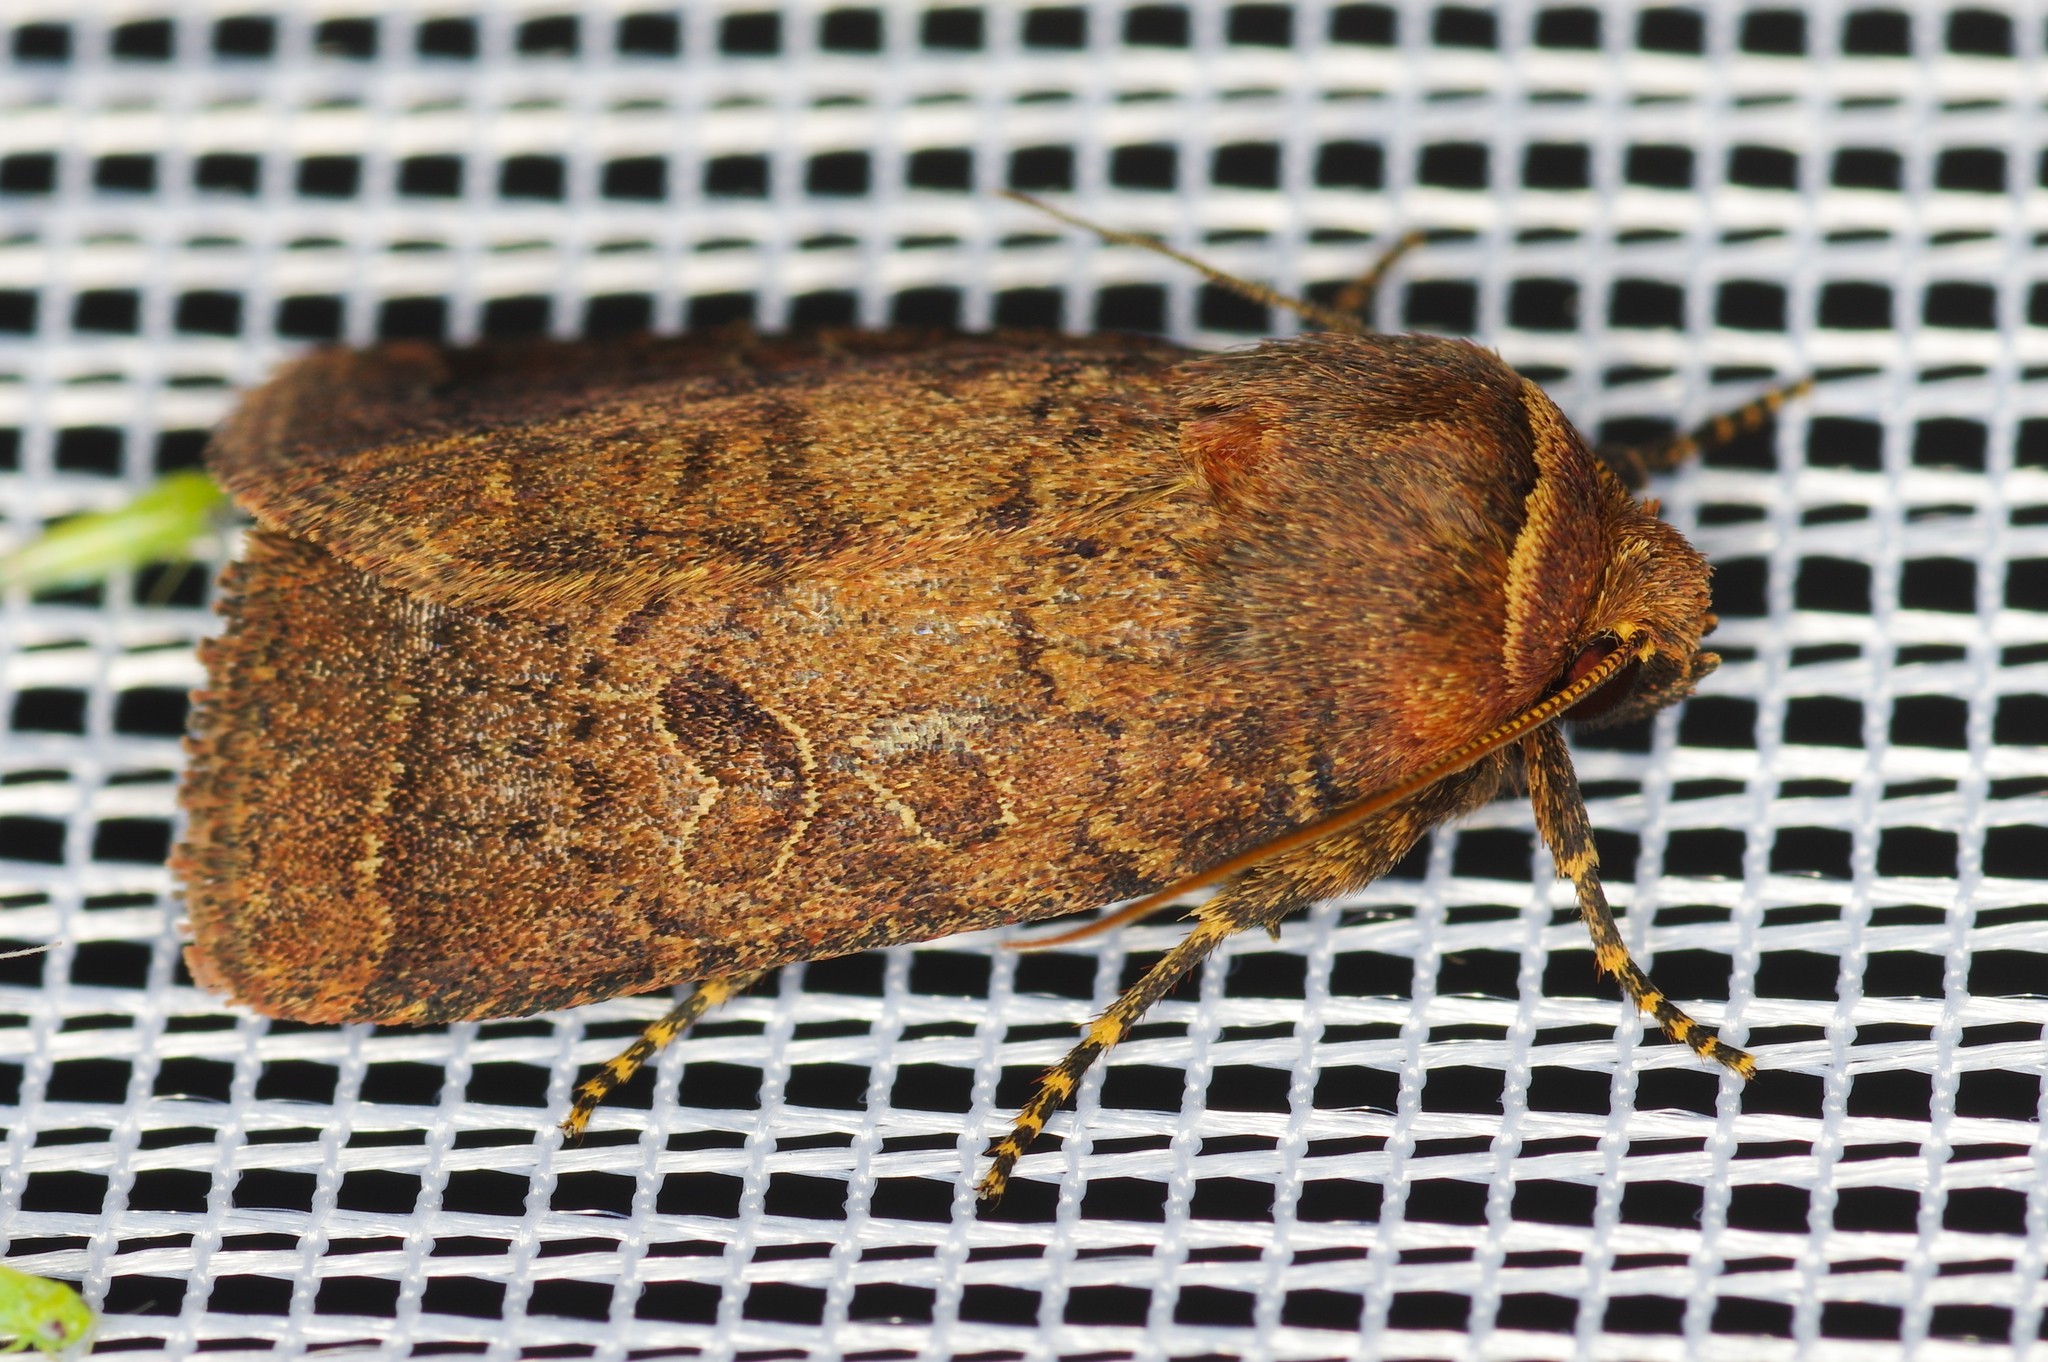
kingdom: Animalia
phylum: Arthropoda
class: Insecta
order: Lepidoptera
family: Noctuidae
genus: Orthodes
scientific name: Orthodes cynica
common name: Cynical quaker
